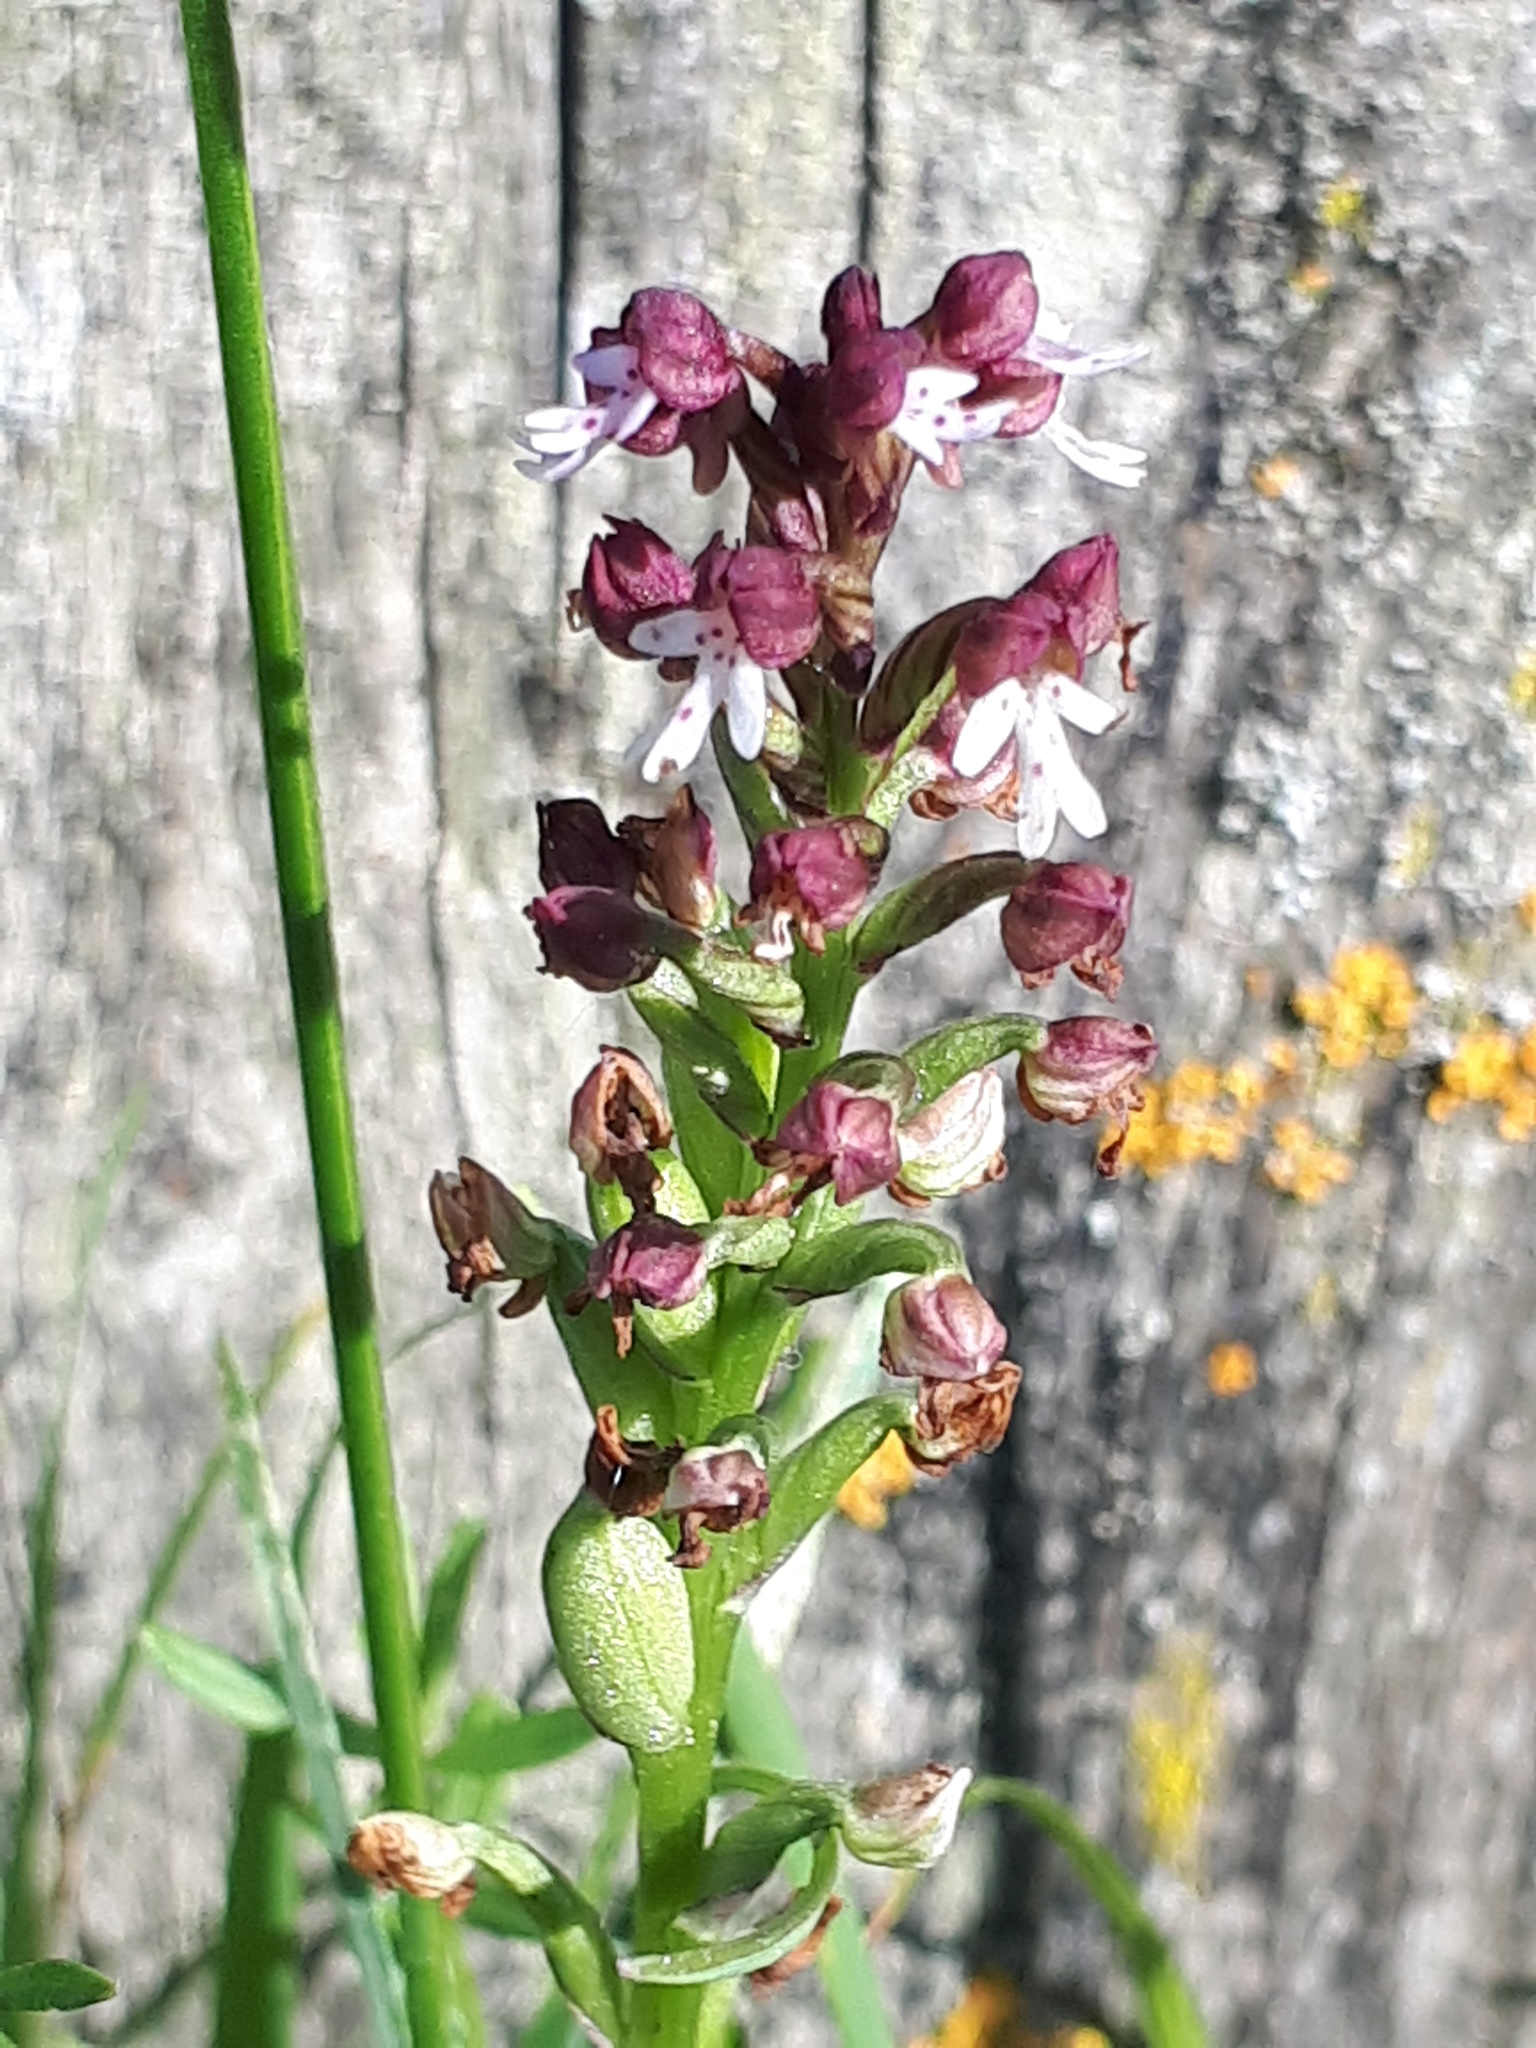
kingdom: Plantae
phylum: Tracheophyta
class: Liliopsida
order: Asparagales
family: Orchidaceae
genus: Neotinea
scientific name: Neotinea ustulata
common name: Burnt orchid
